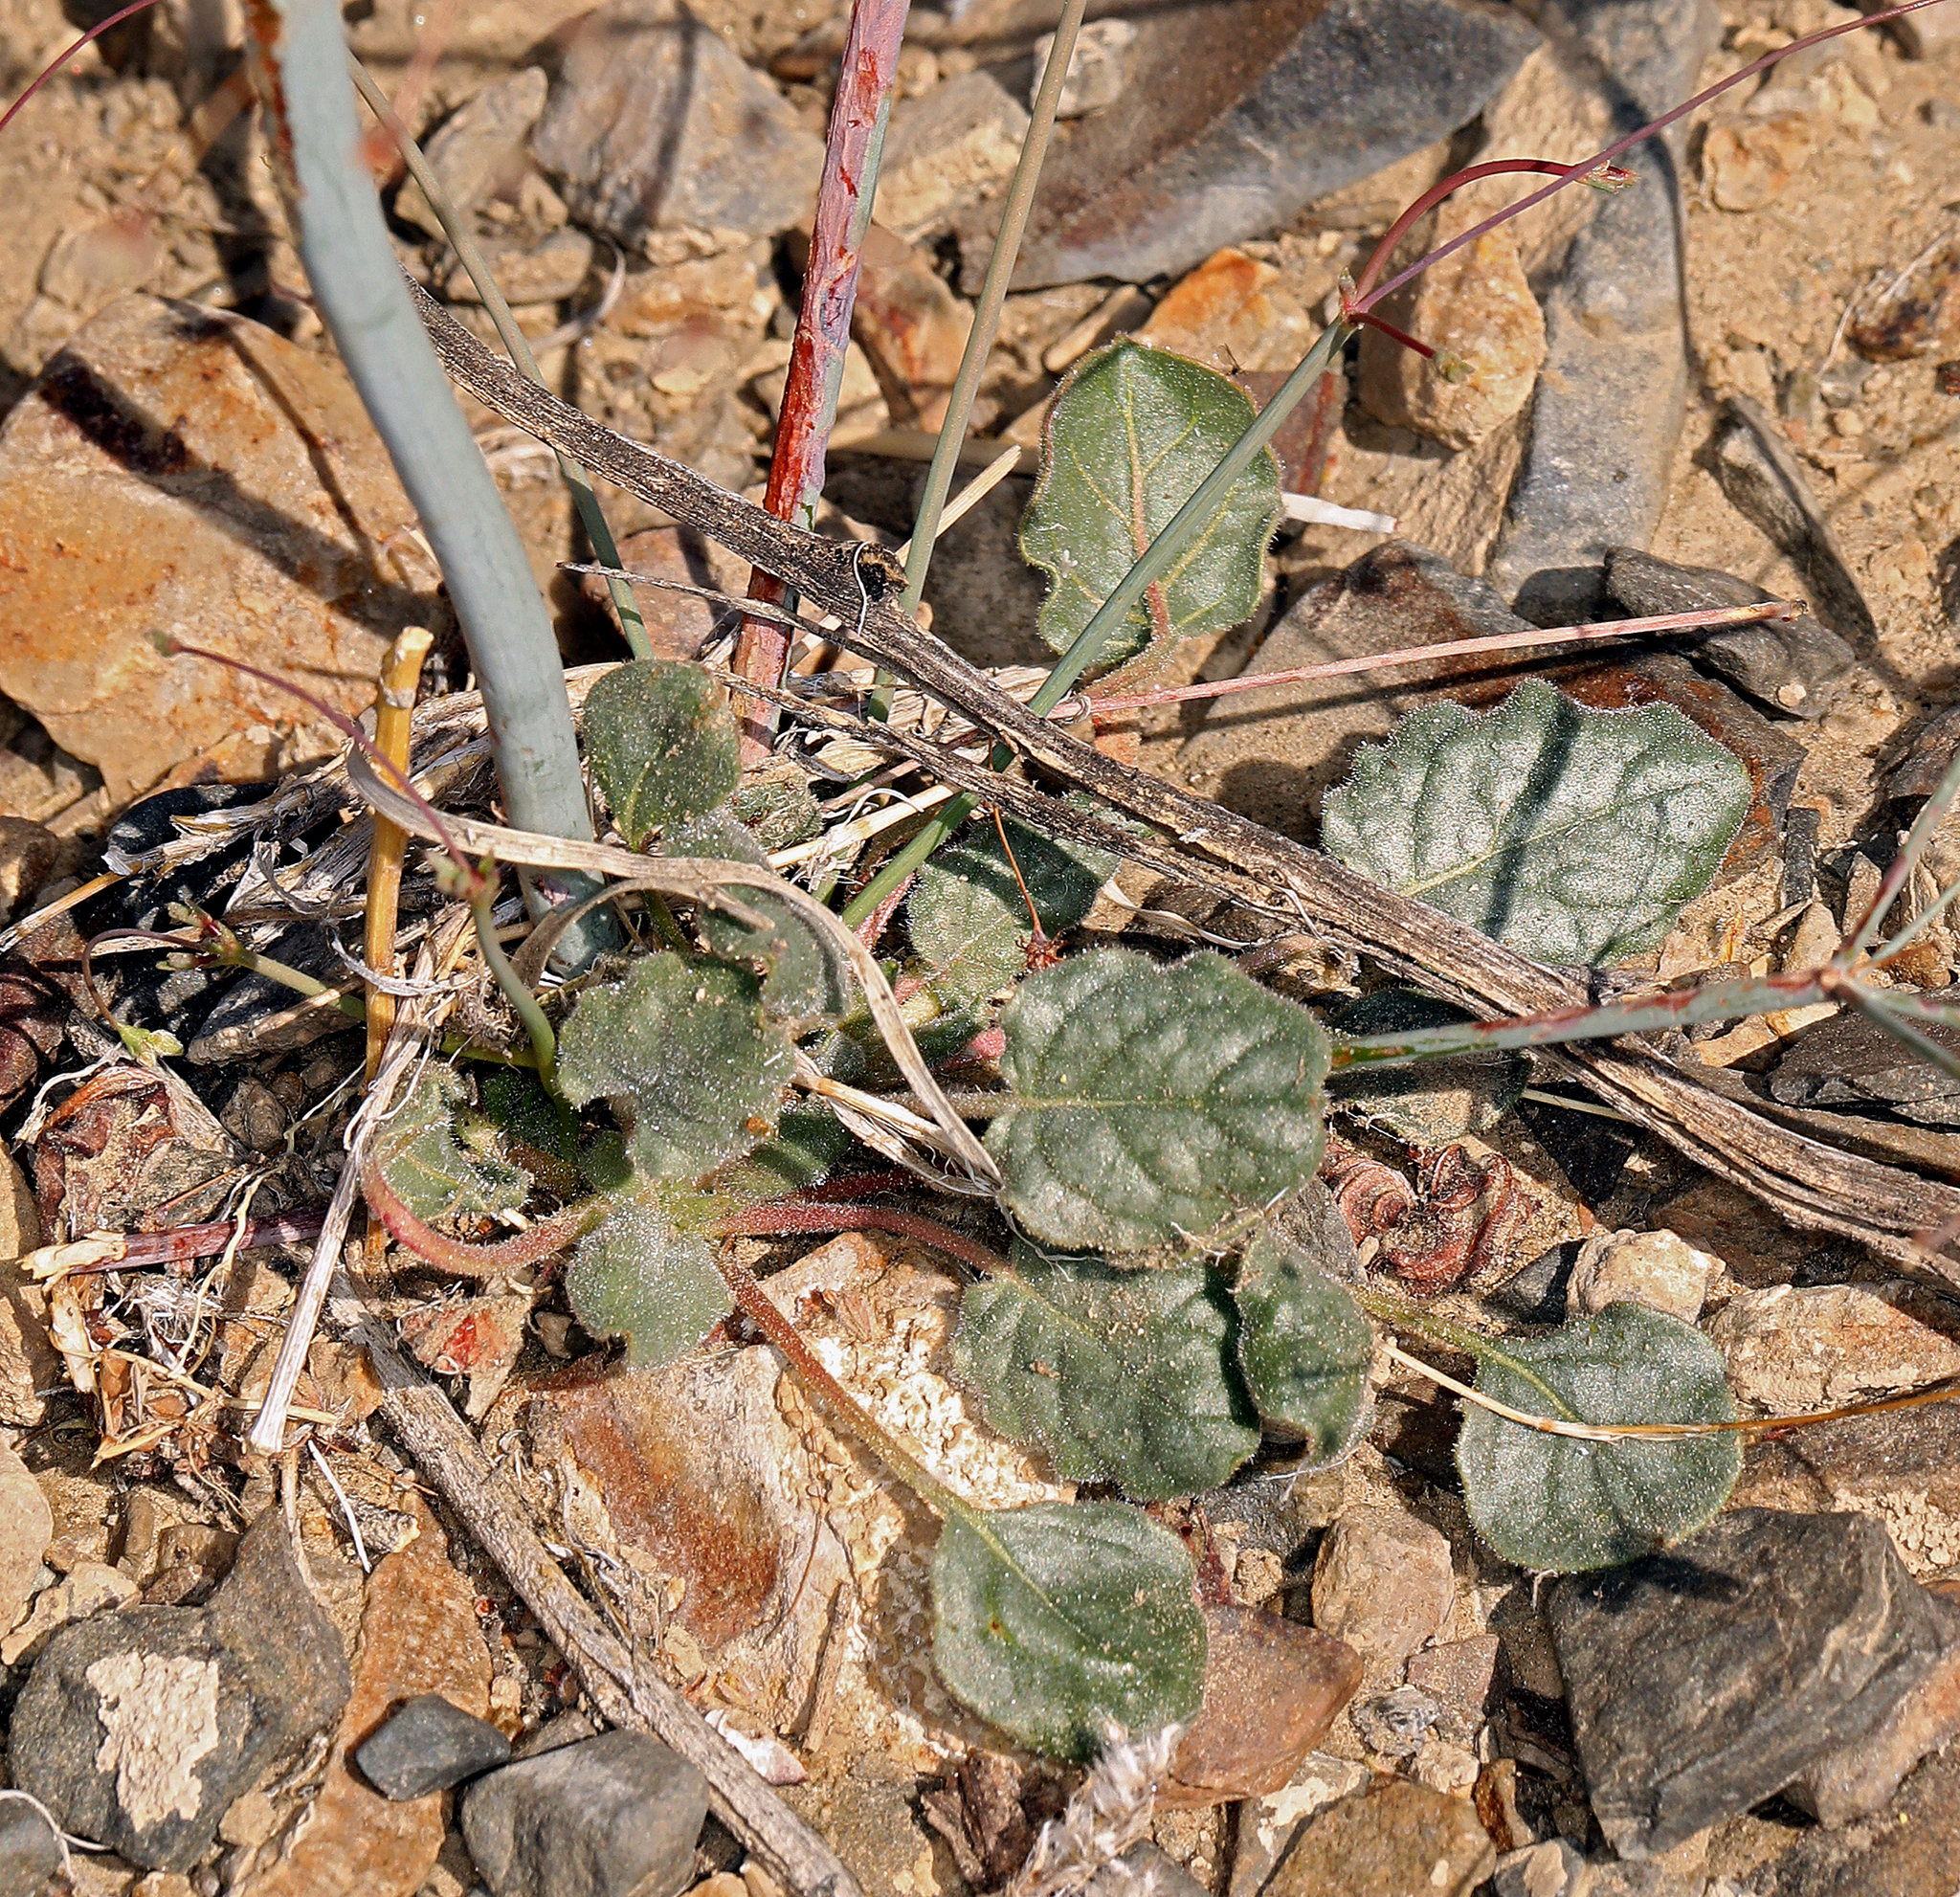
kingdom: Plantae
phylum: Tracheophyta
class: Magnoliopsida
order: Caryophyllales
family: Polygonaceae
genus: Eriogonum
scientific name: Eriogonum inflatum
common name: Desert trumpet
